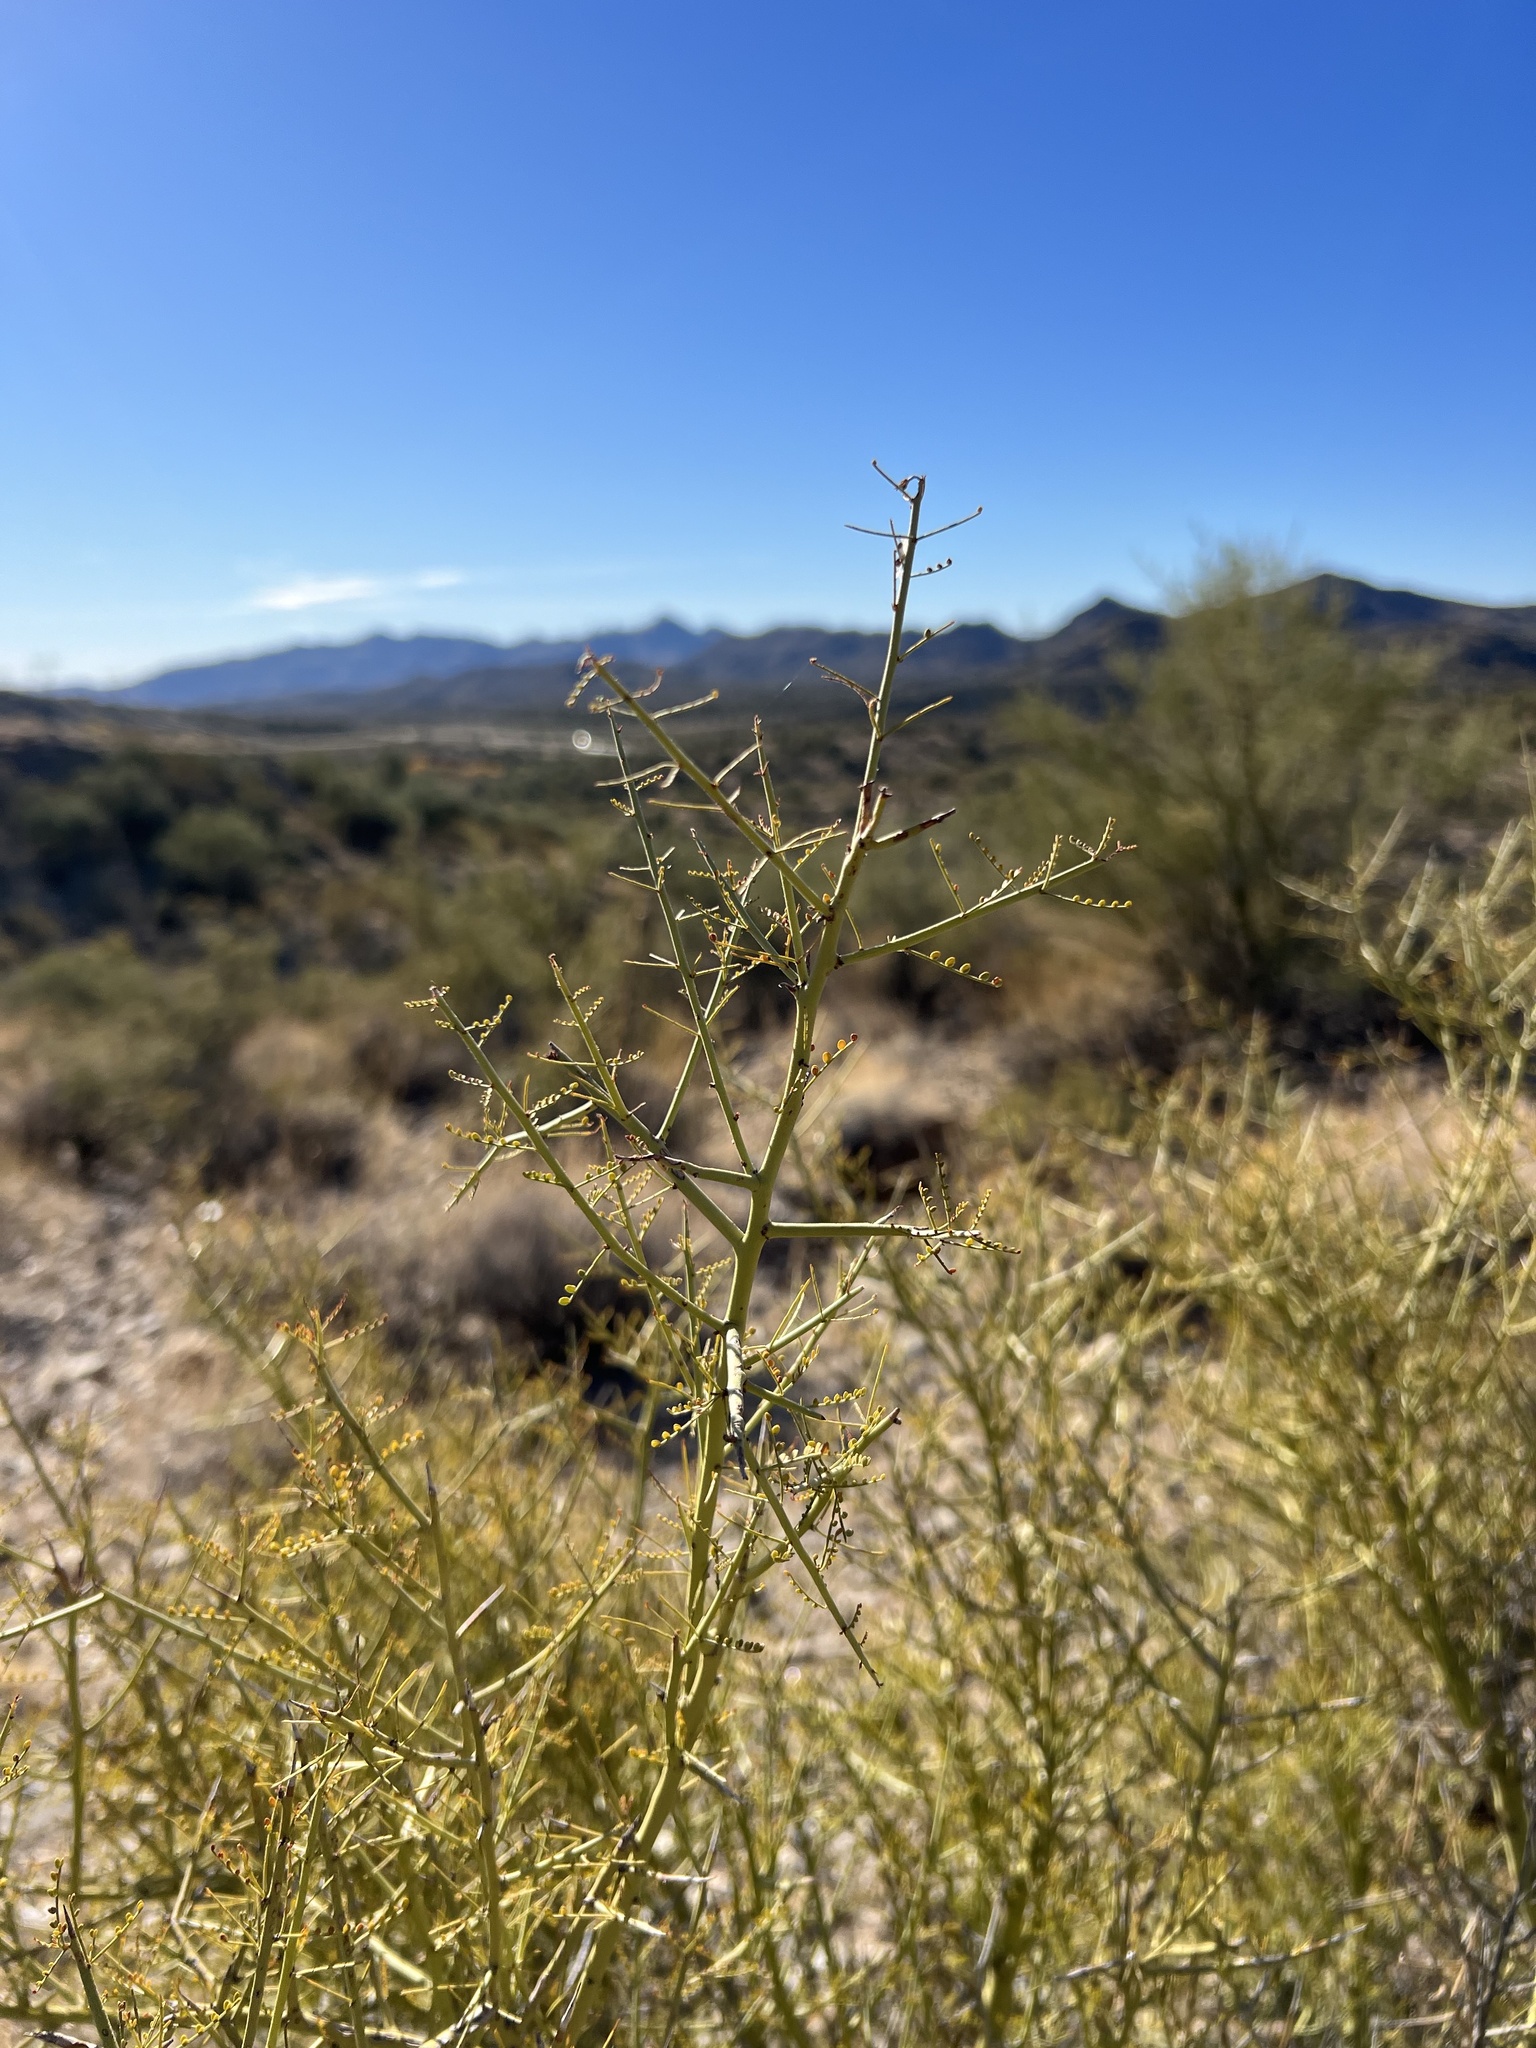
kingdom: Plantae
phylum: Tracheophyta
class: Magnoliopsida
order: Fabales
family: Fabaceae
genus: Parkinsonia
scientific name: Parkinsonia microphylla
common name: Yellow paloverde
